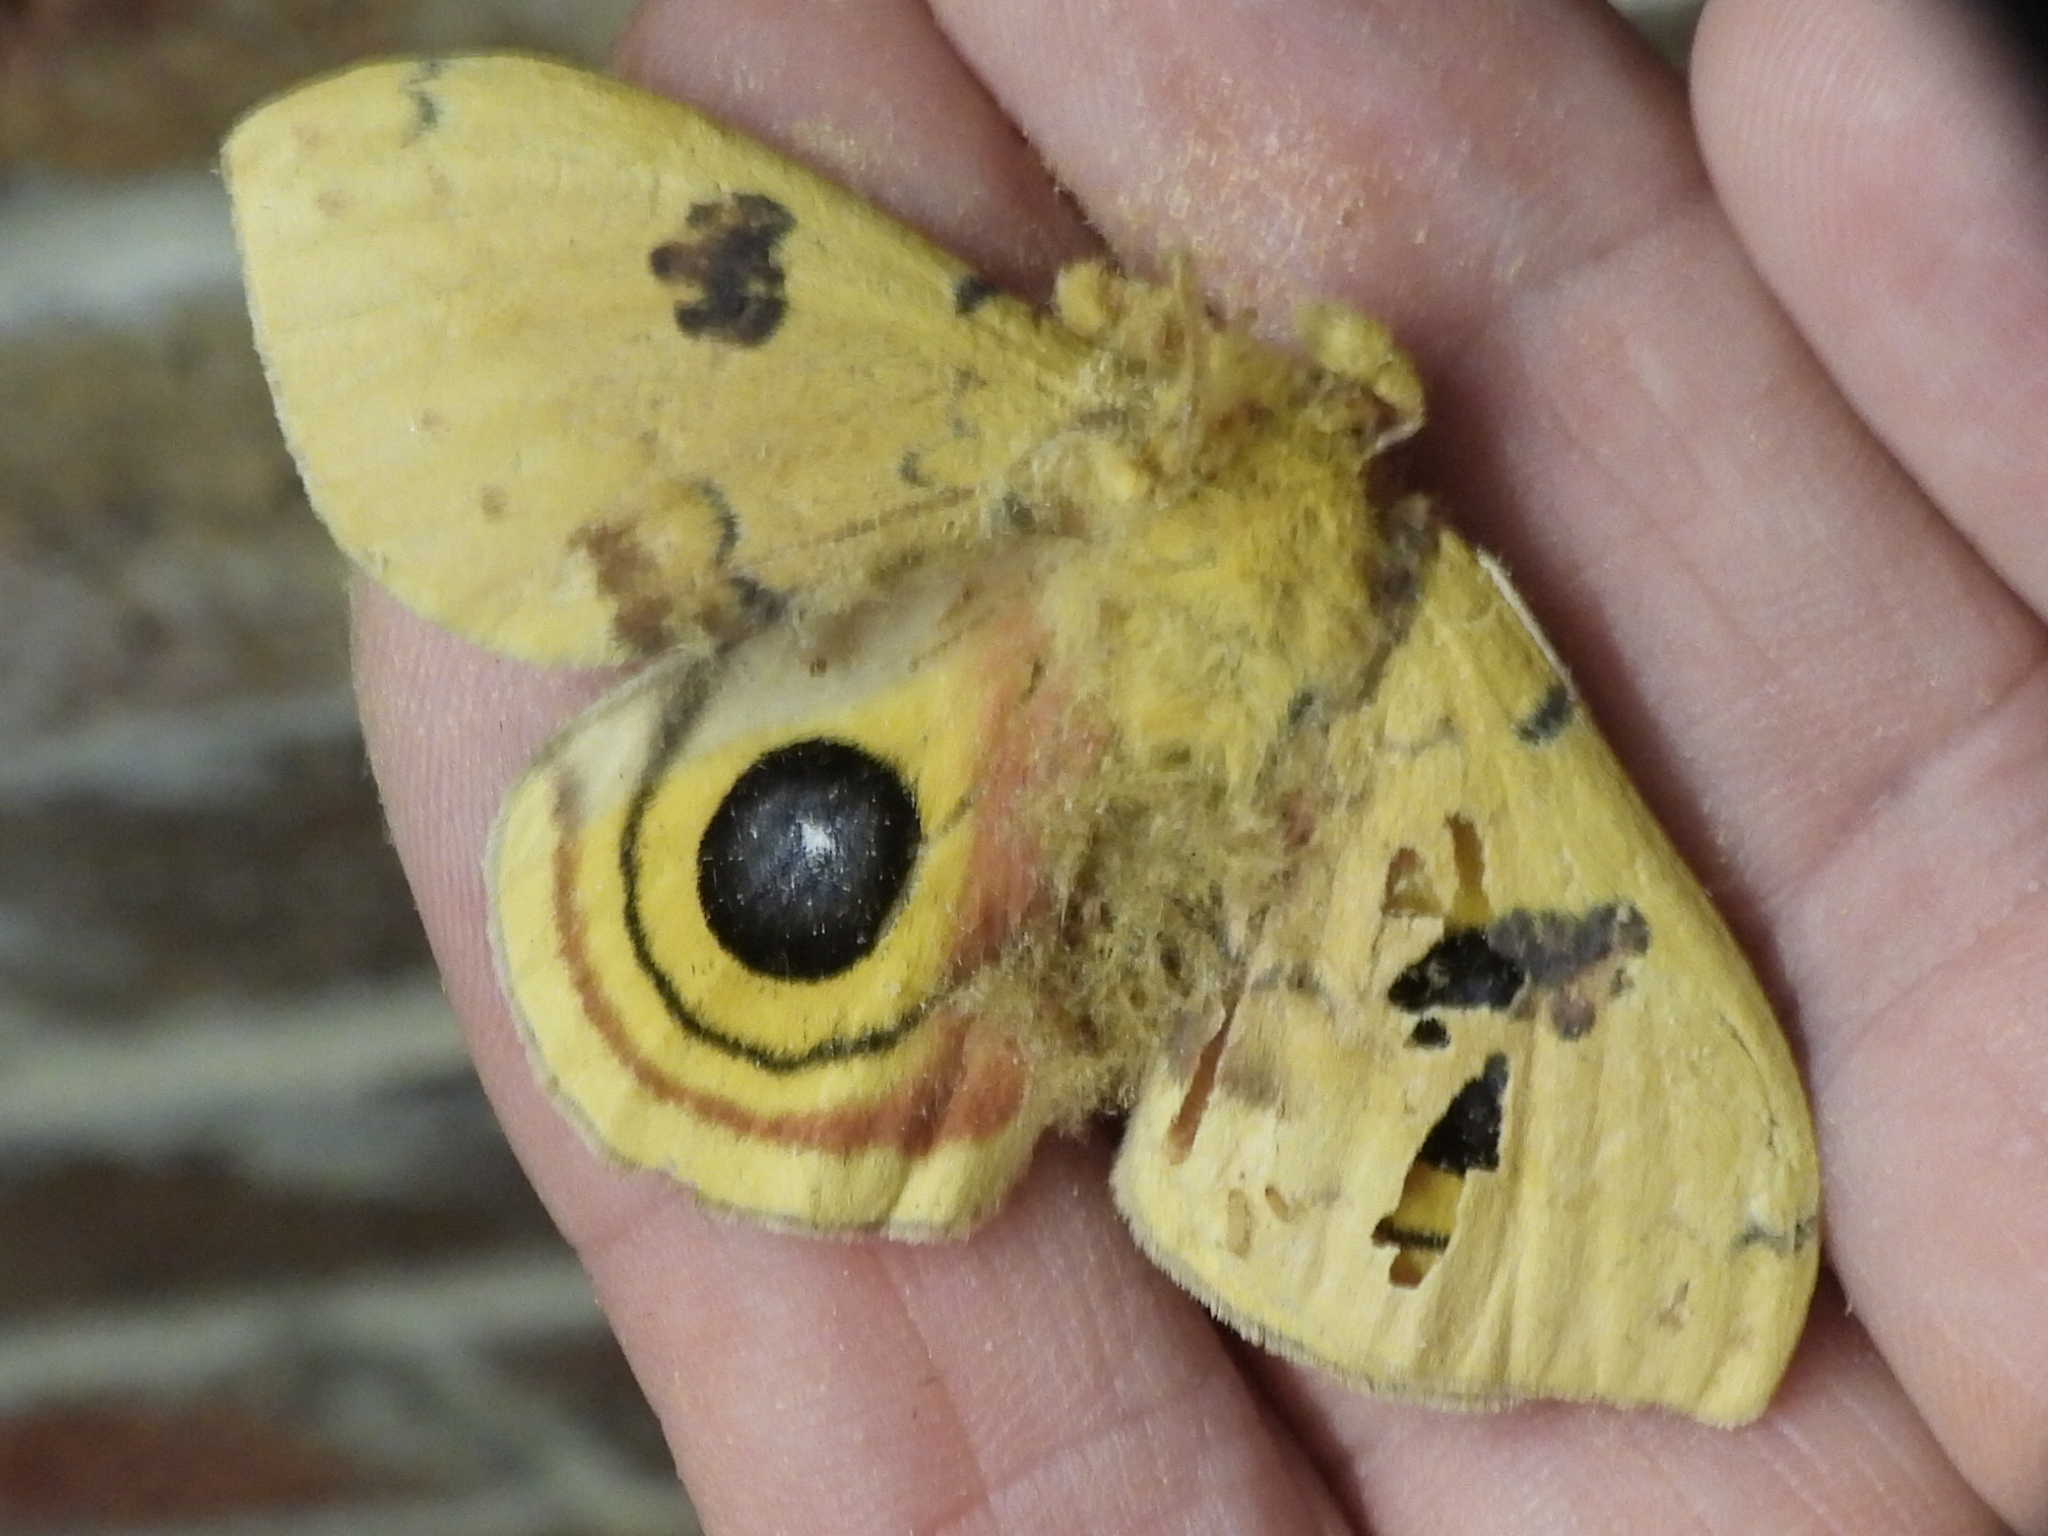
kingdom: Animalia
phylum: Arthropoda
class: Insecta
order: Lepidoptera
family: Saturniidae
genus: Automeris
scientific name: Automeris io
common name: Io moth
